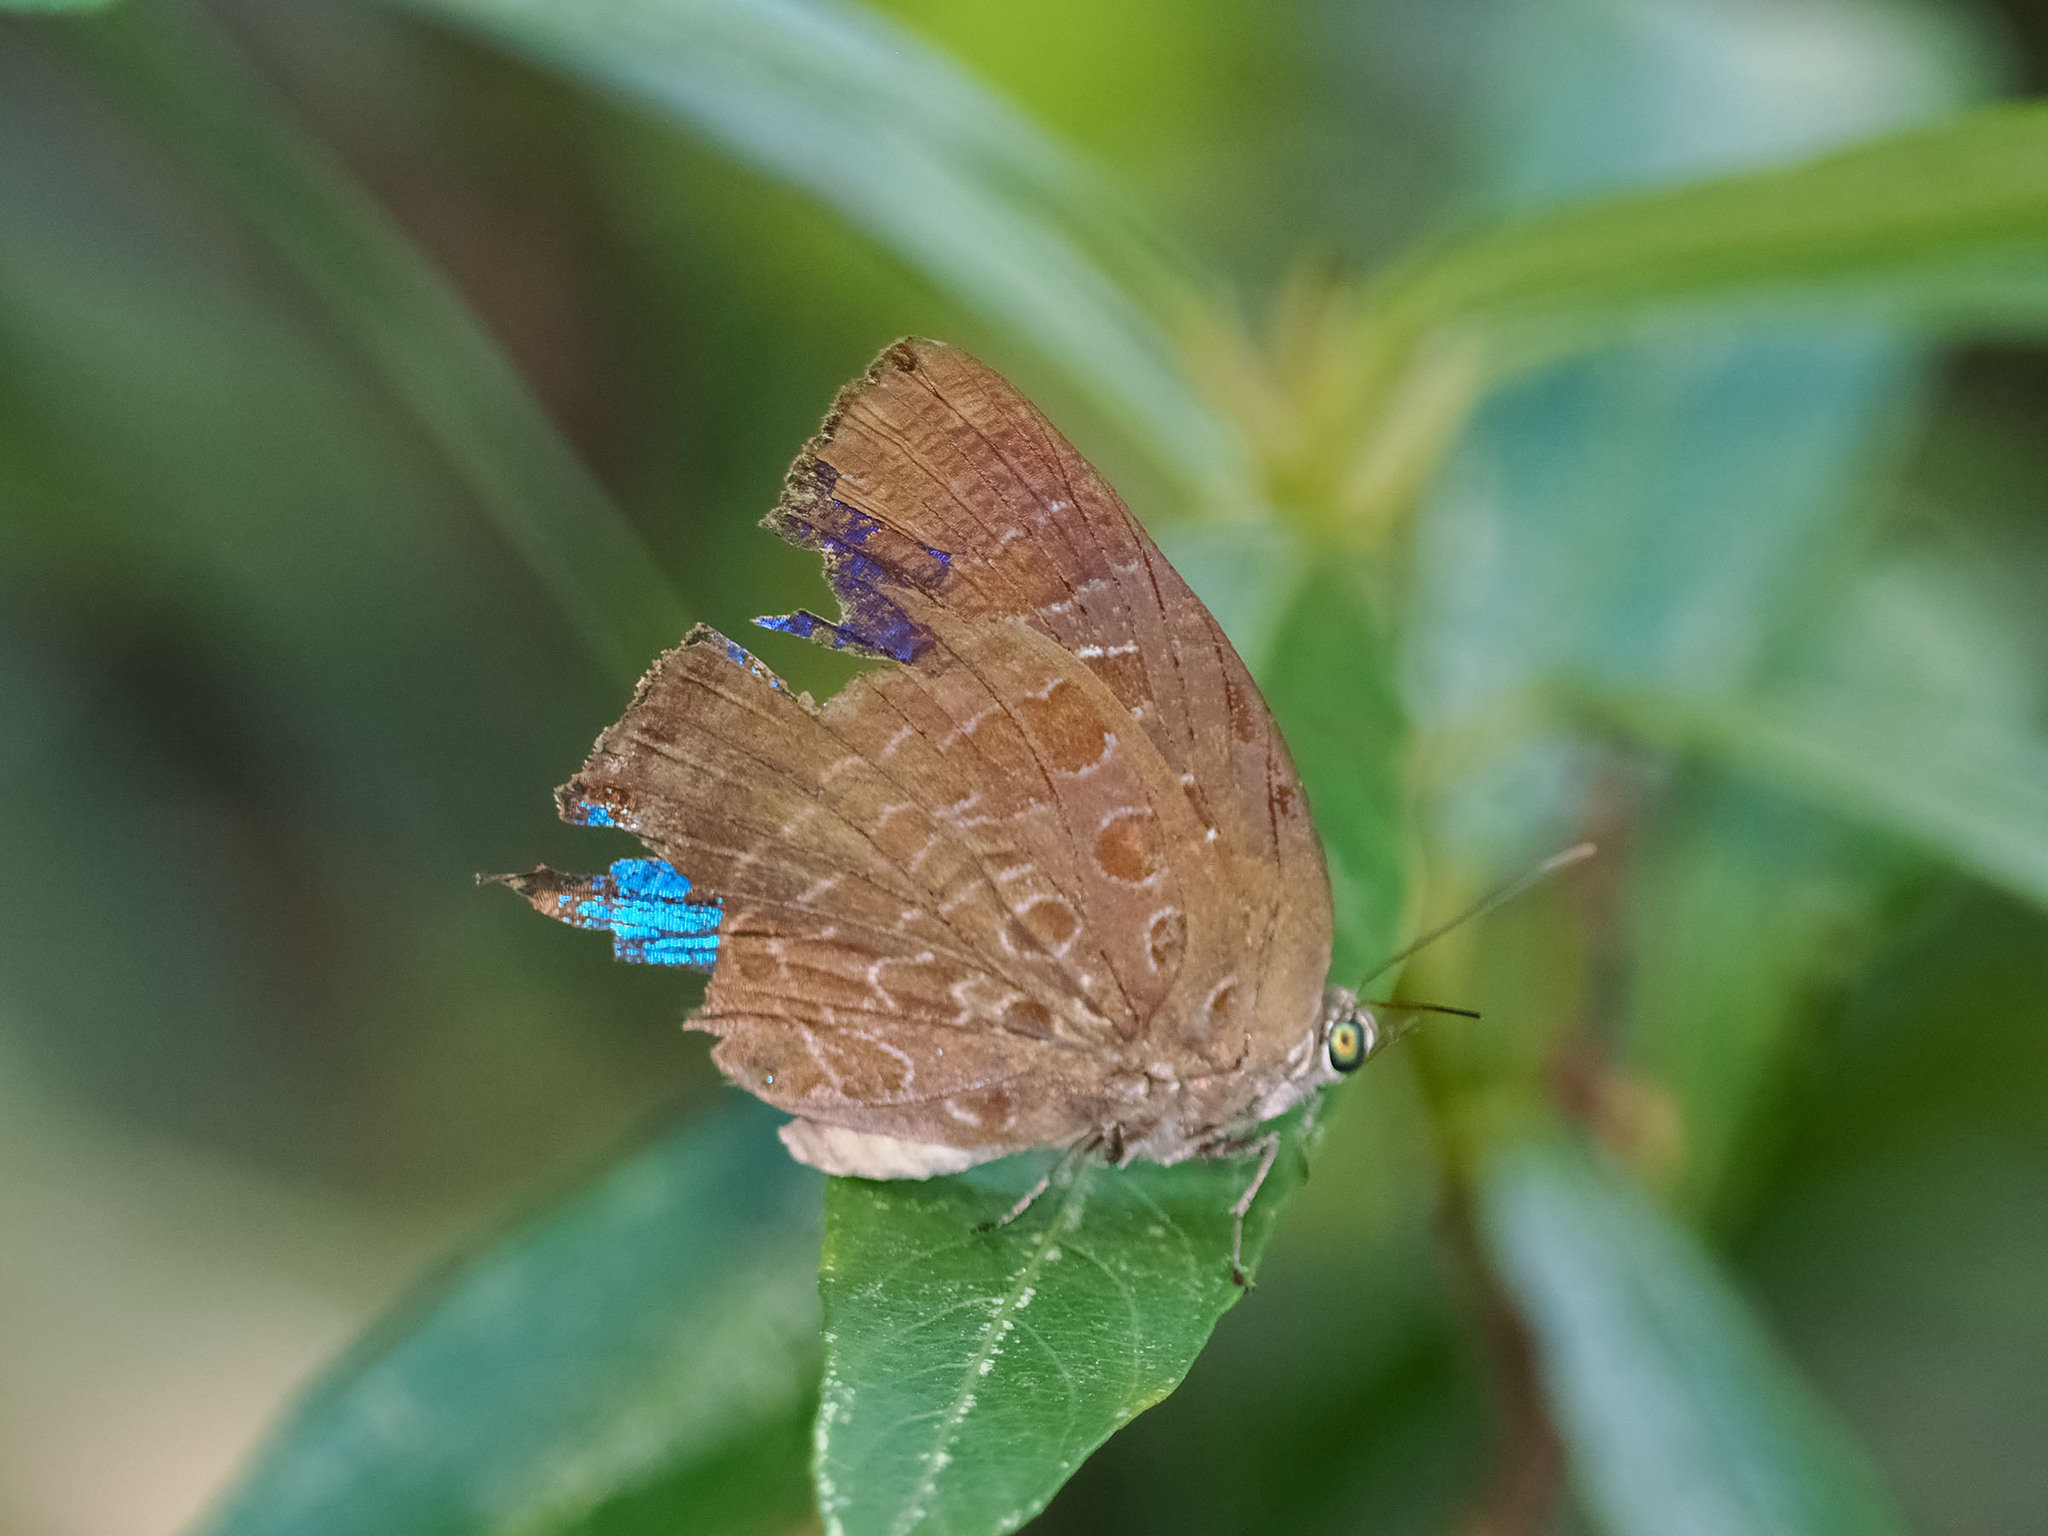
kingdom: Animalia
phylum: Arthropoda
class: Insecta
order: Lepidoptera
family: Lycaenidae
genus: Arhopala
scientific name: Arhopala araxes
